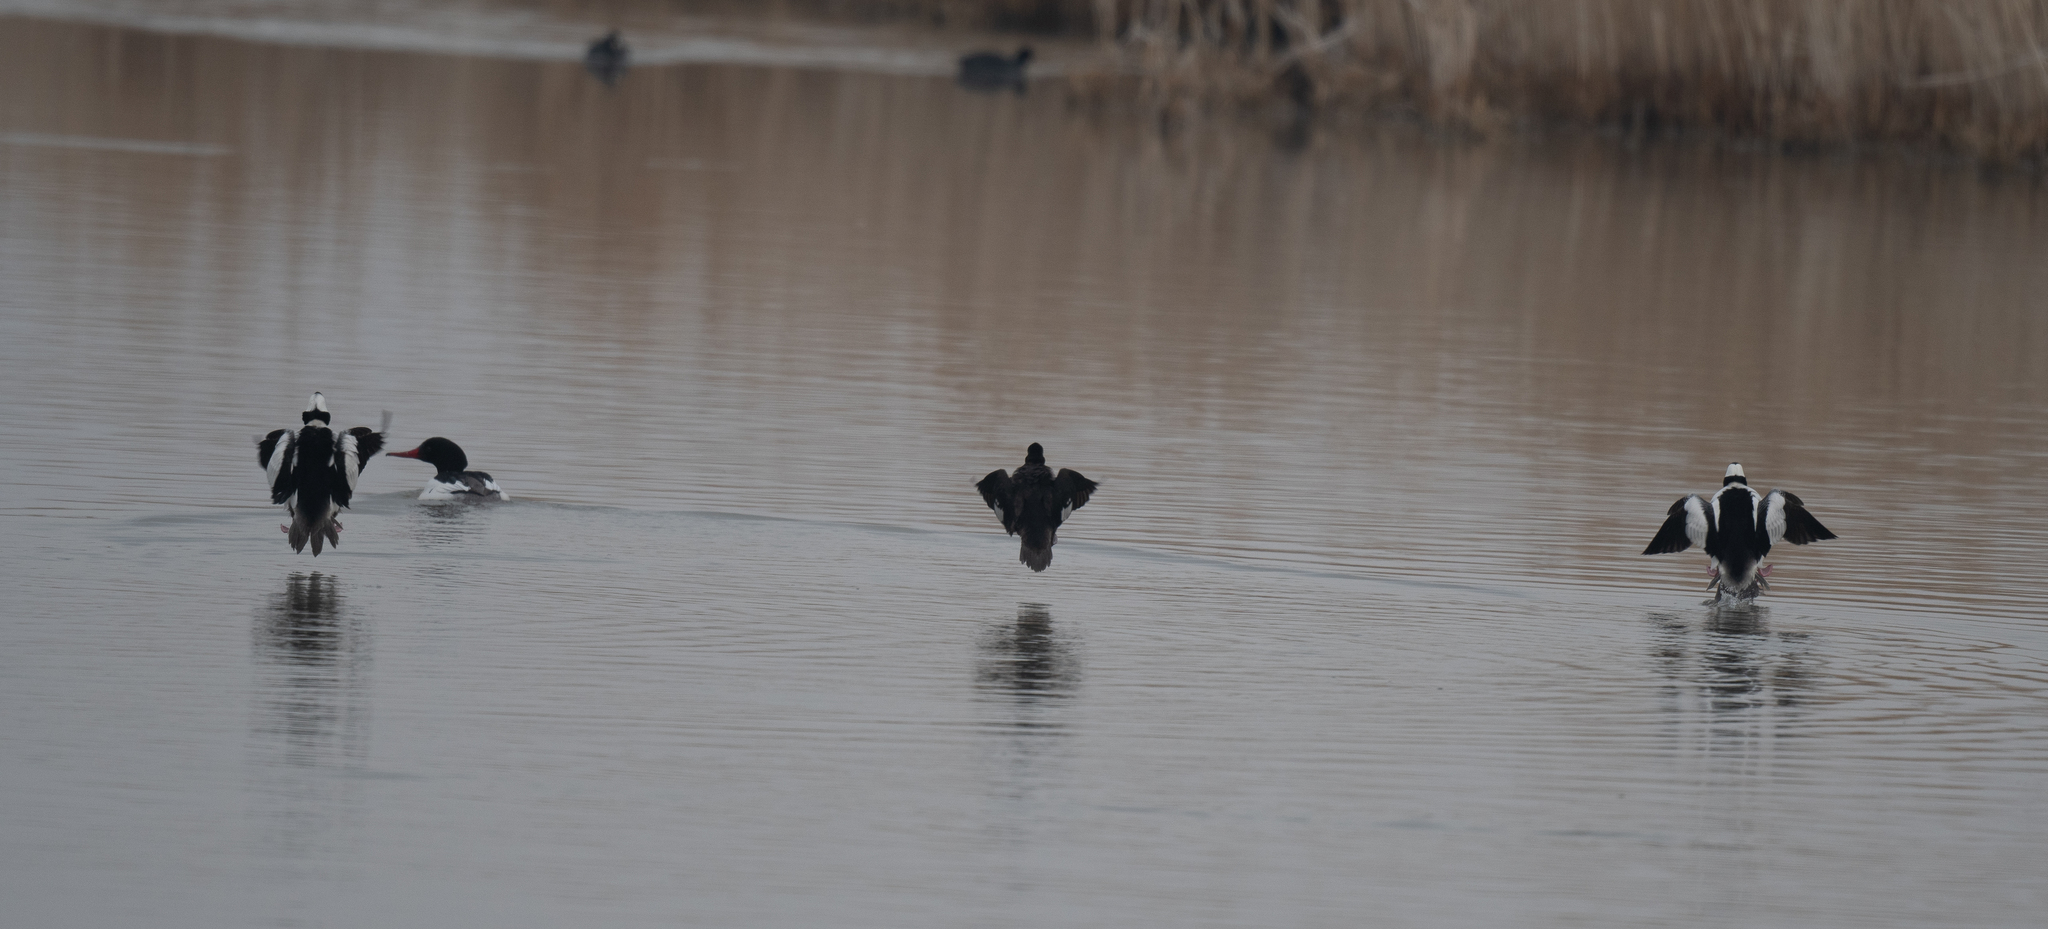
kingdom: Animalia
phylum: Chordata
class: Aves
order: Anseriformes
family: Anatidae
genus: Bucephala
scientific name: Bucephala albeola
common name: Bufflehead
